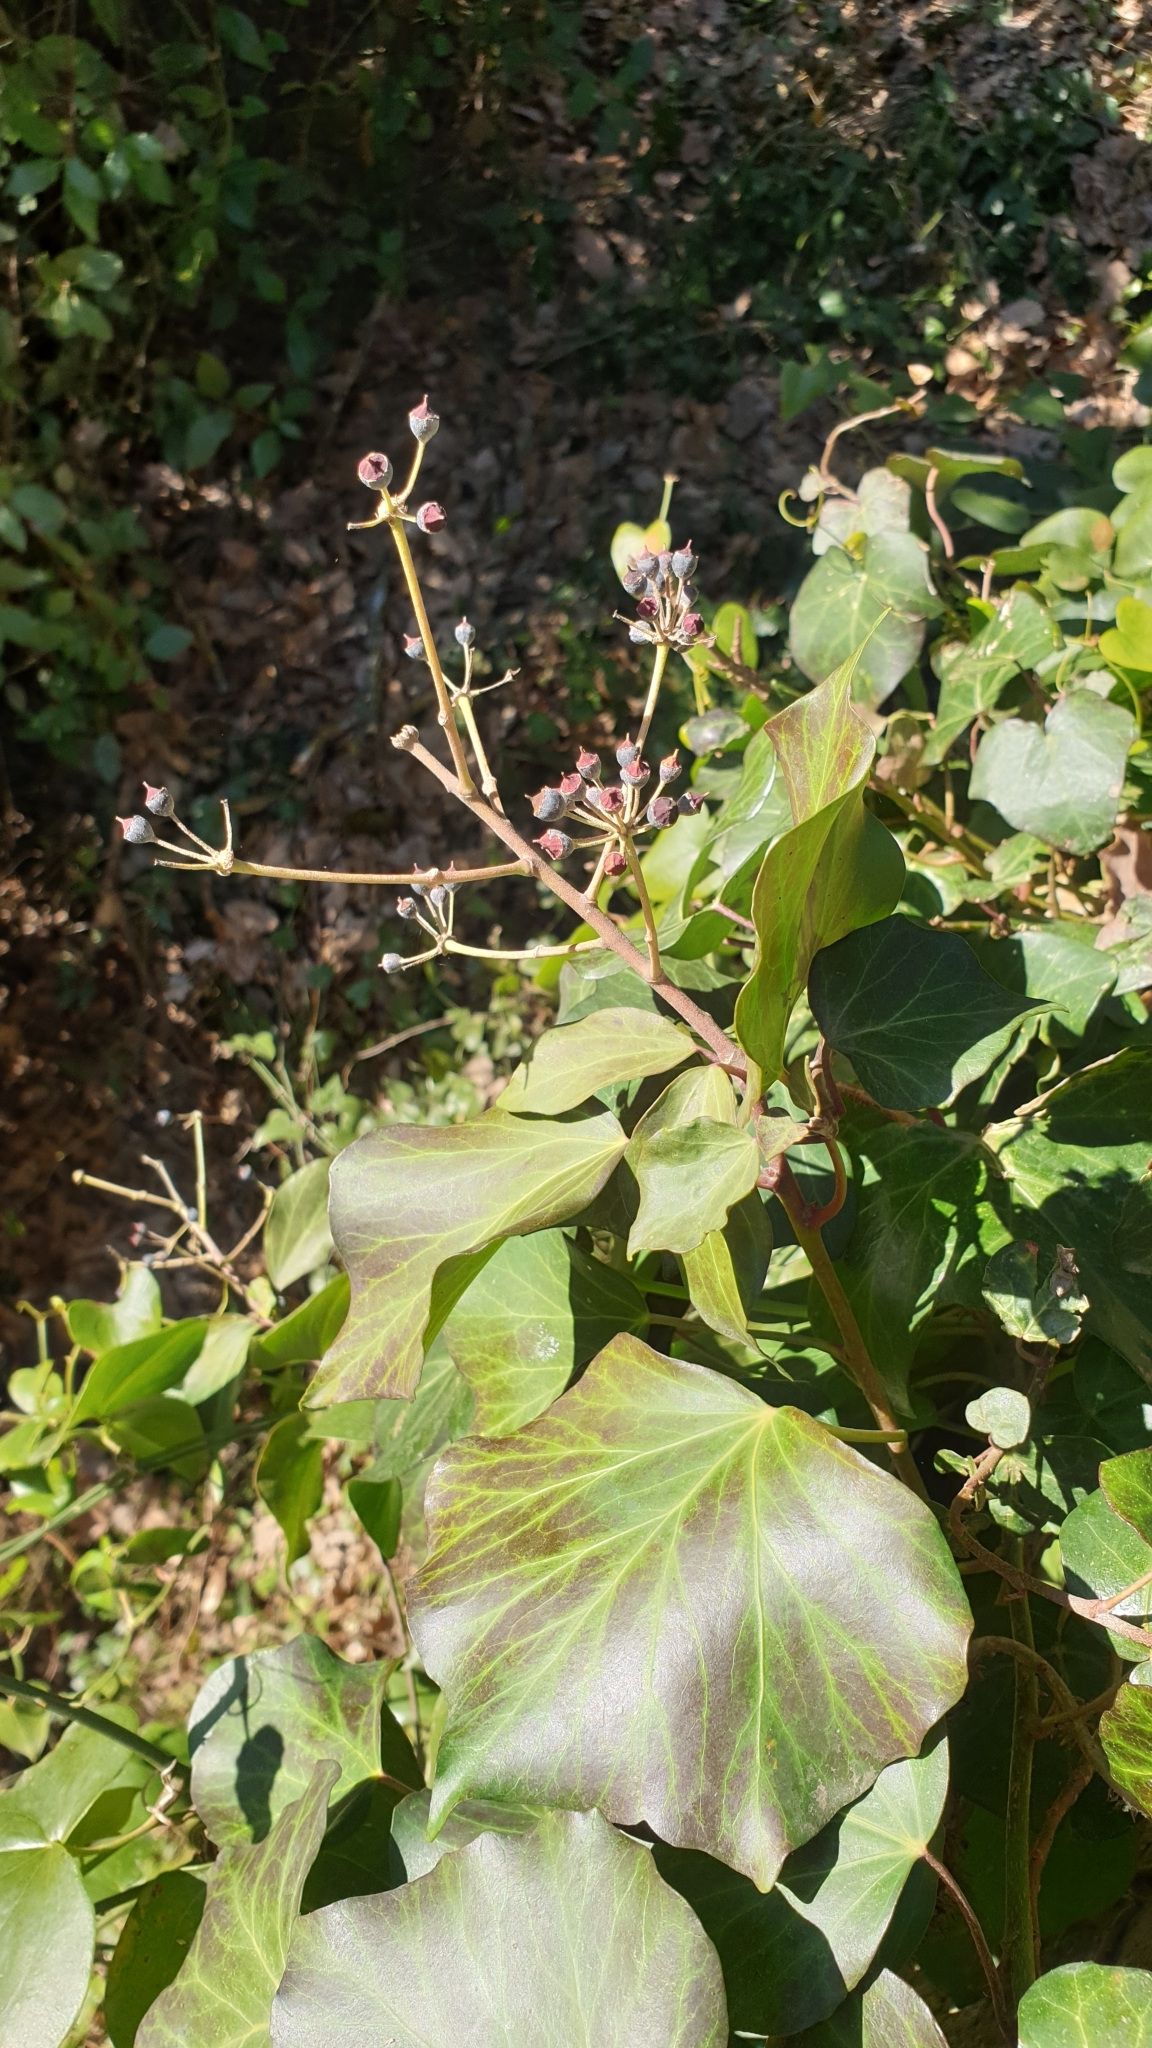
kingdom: Plantae
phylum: Tracheophyta
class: Magnoliopsida
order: Apiales
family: Araliaceae
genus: Hedera
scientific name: Hedera helix
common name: Ivy
